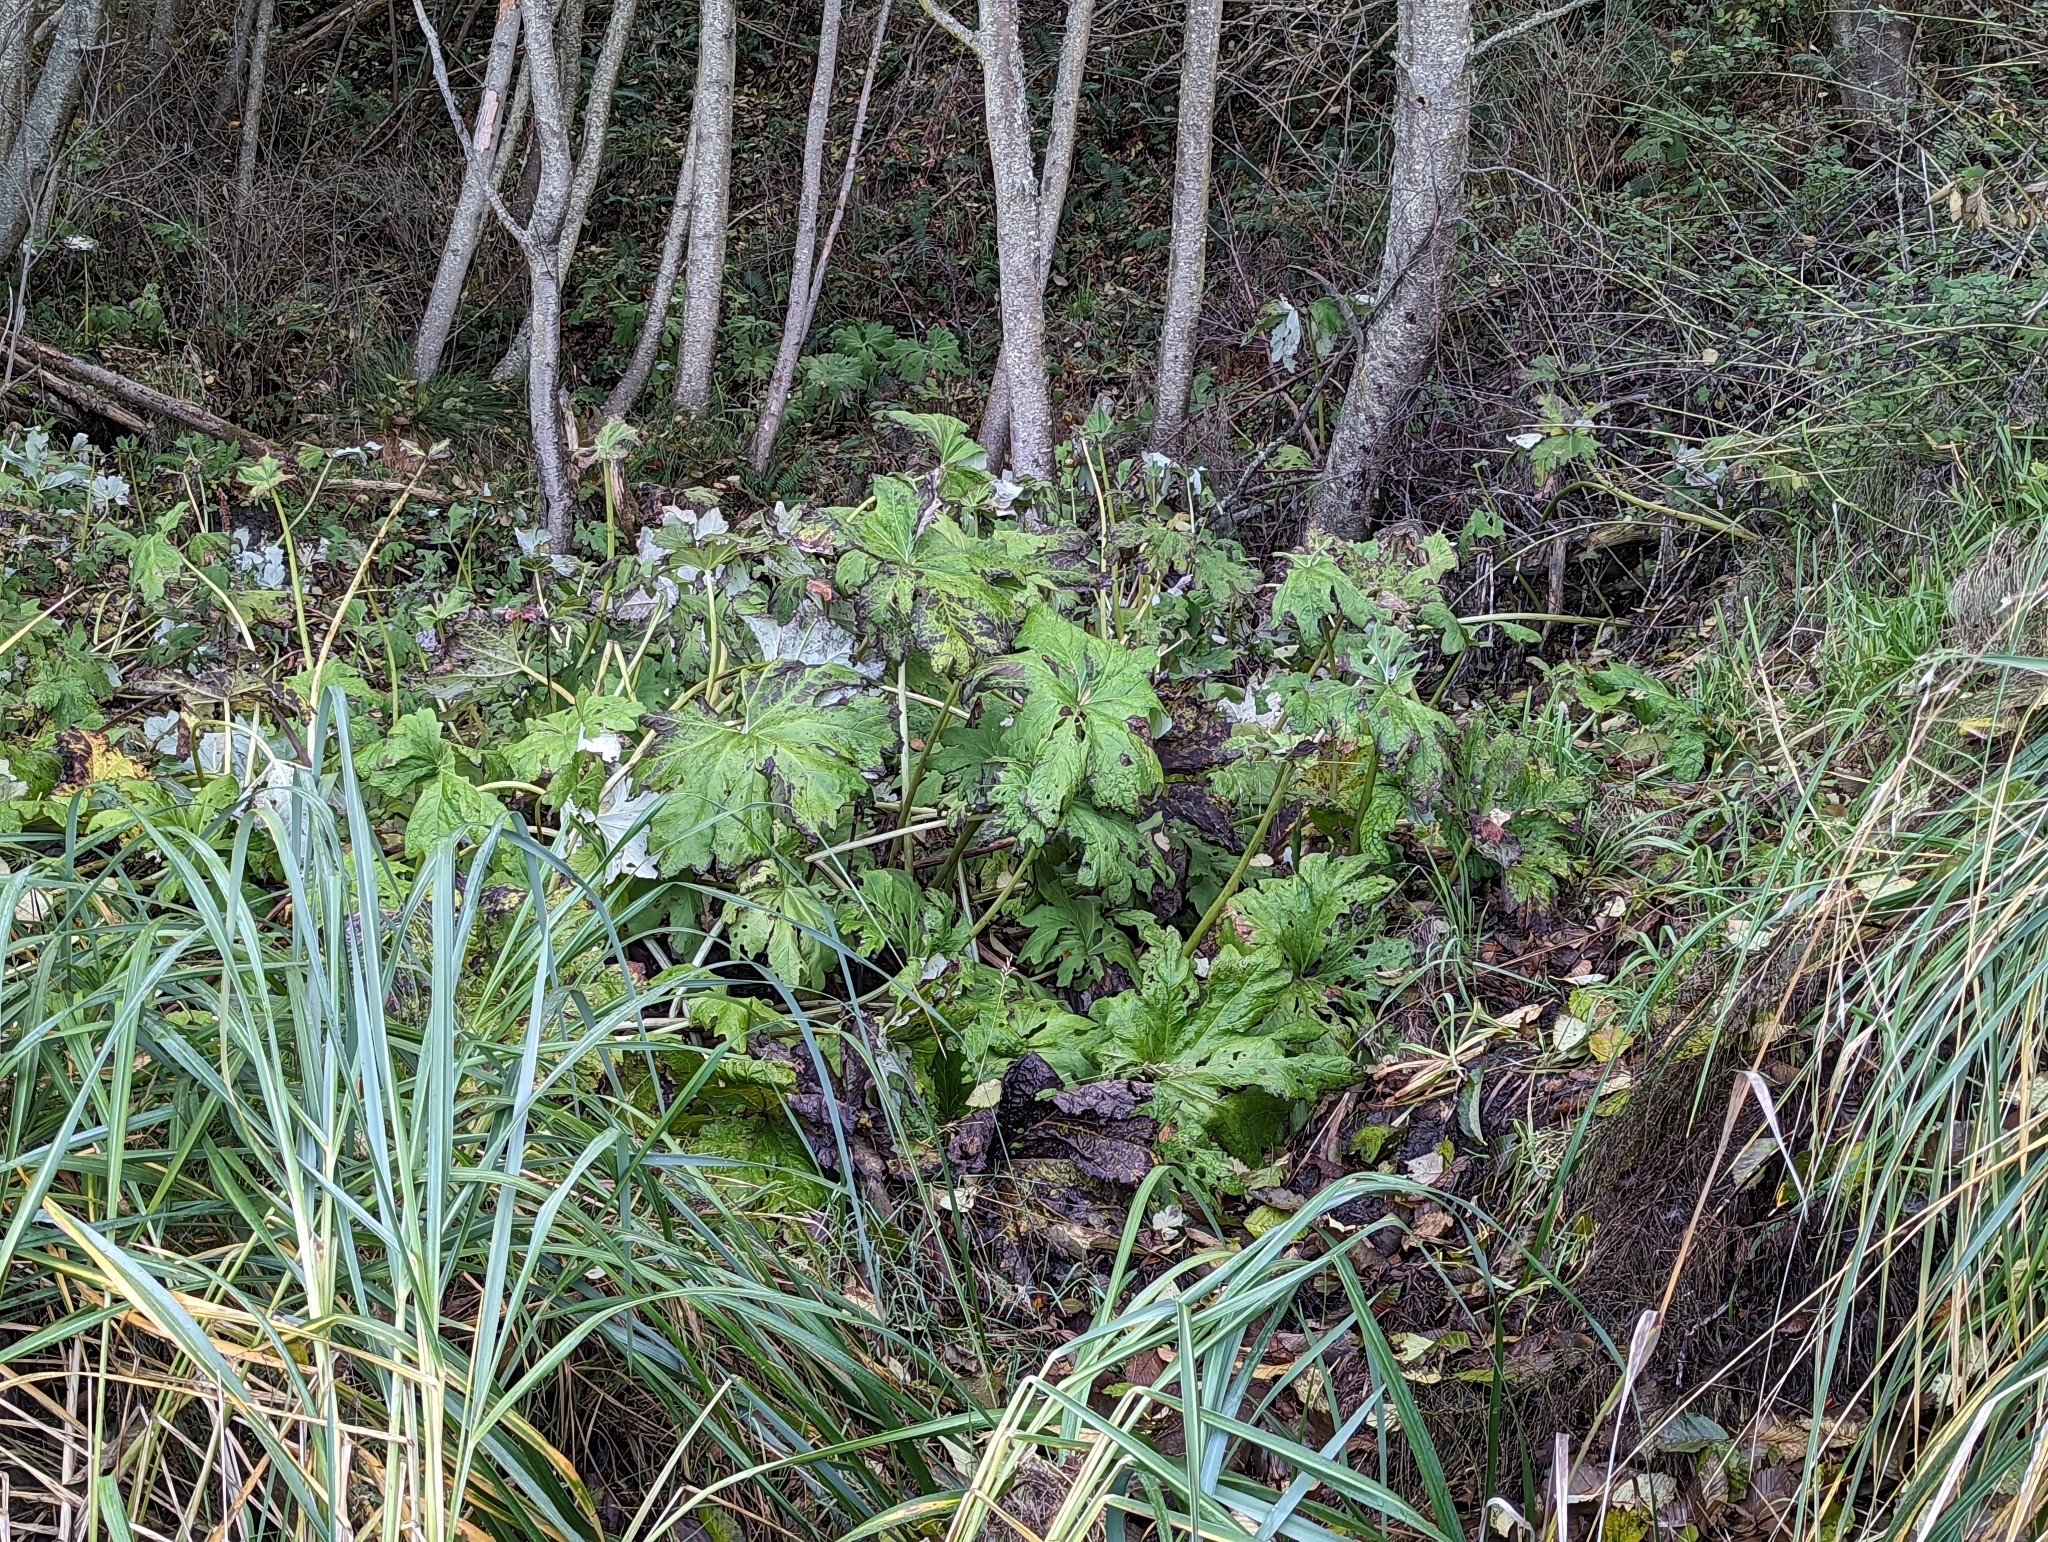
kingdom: Plantae
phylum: Tracheophyta
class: Magnoliopsida
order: Asterales
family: Asteraceae
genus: Petasites
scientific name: Petasites frigidus
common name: Arctic butterbur
